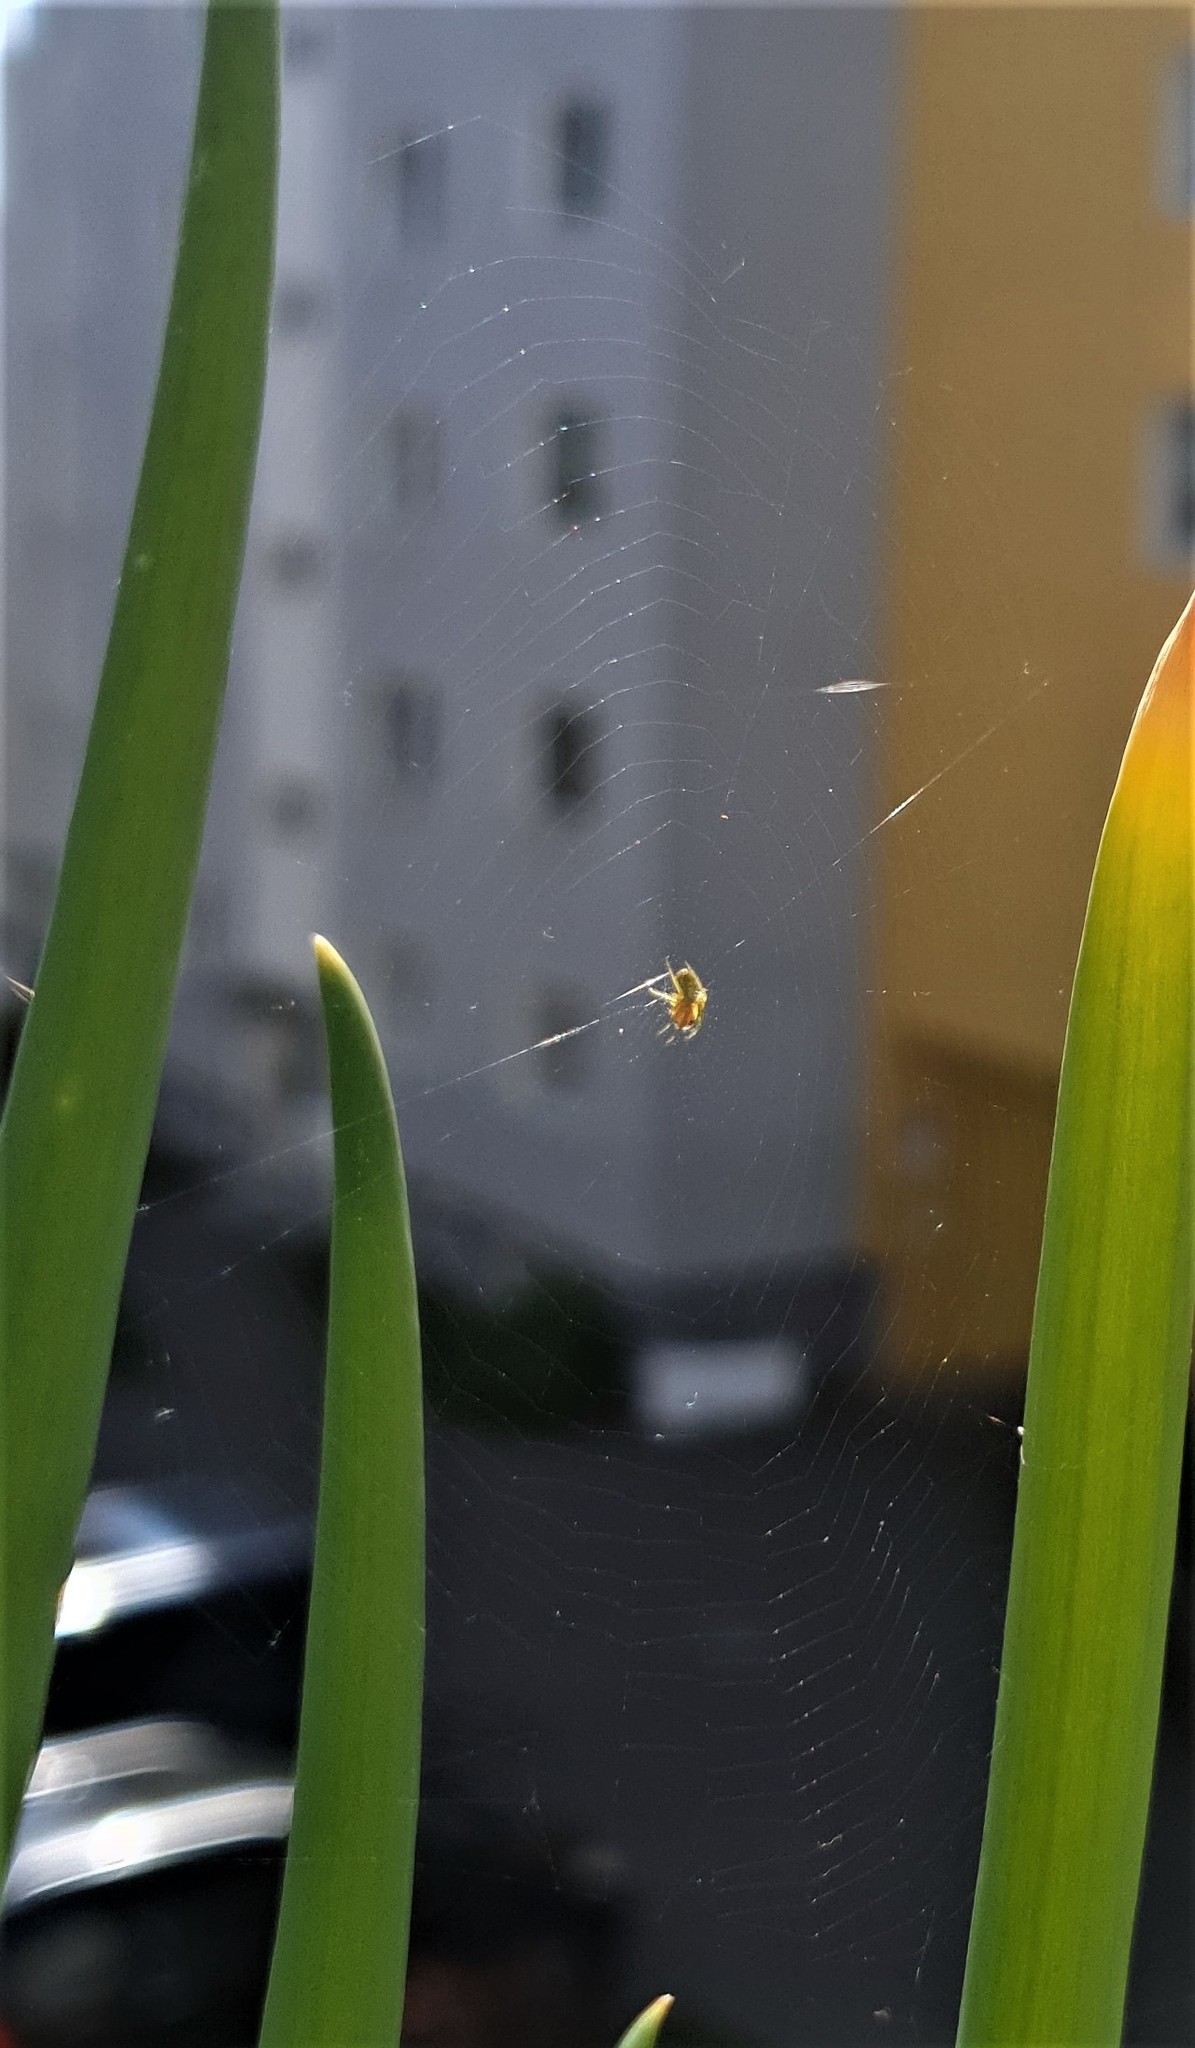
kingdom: Animalia
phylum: Arthropoda
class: Arachnida
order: Araneae
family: Araneidae
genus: Araniella
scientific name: Araniella
